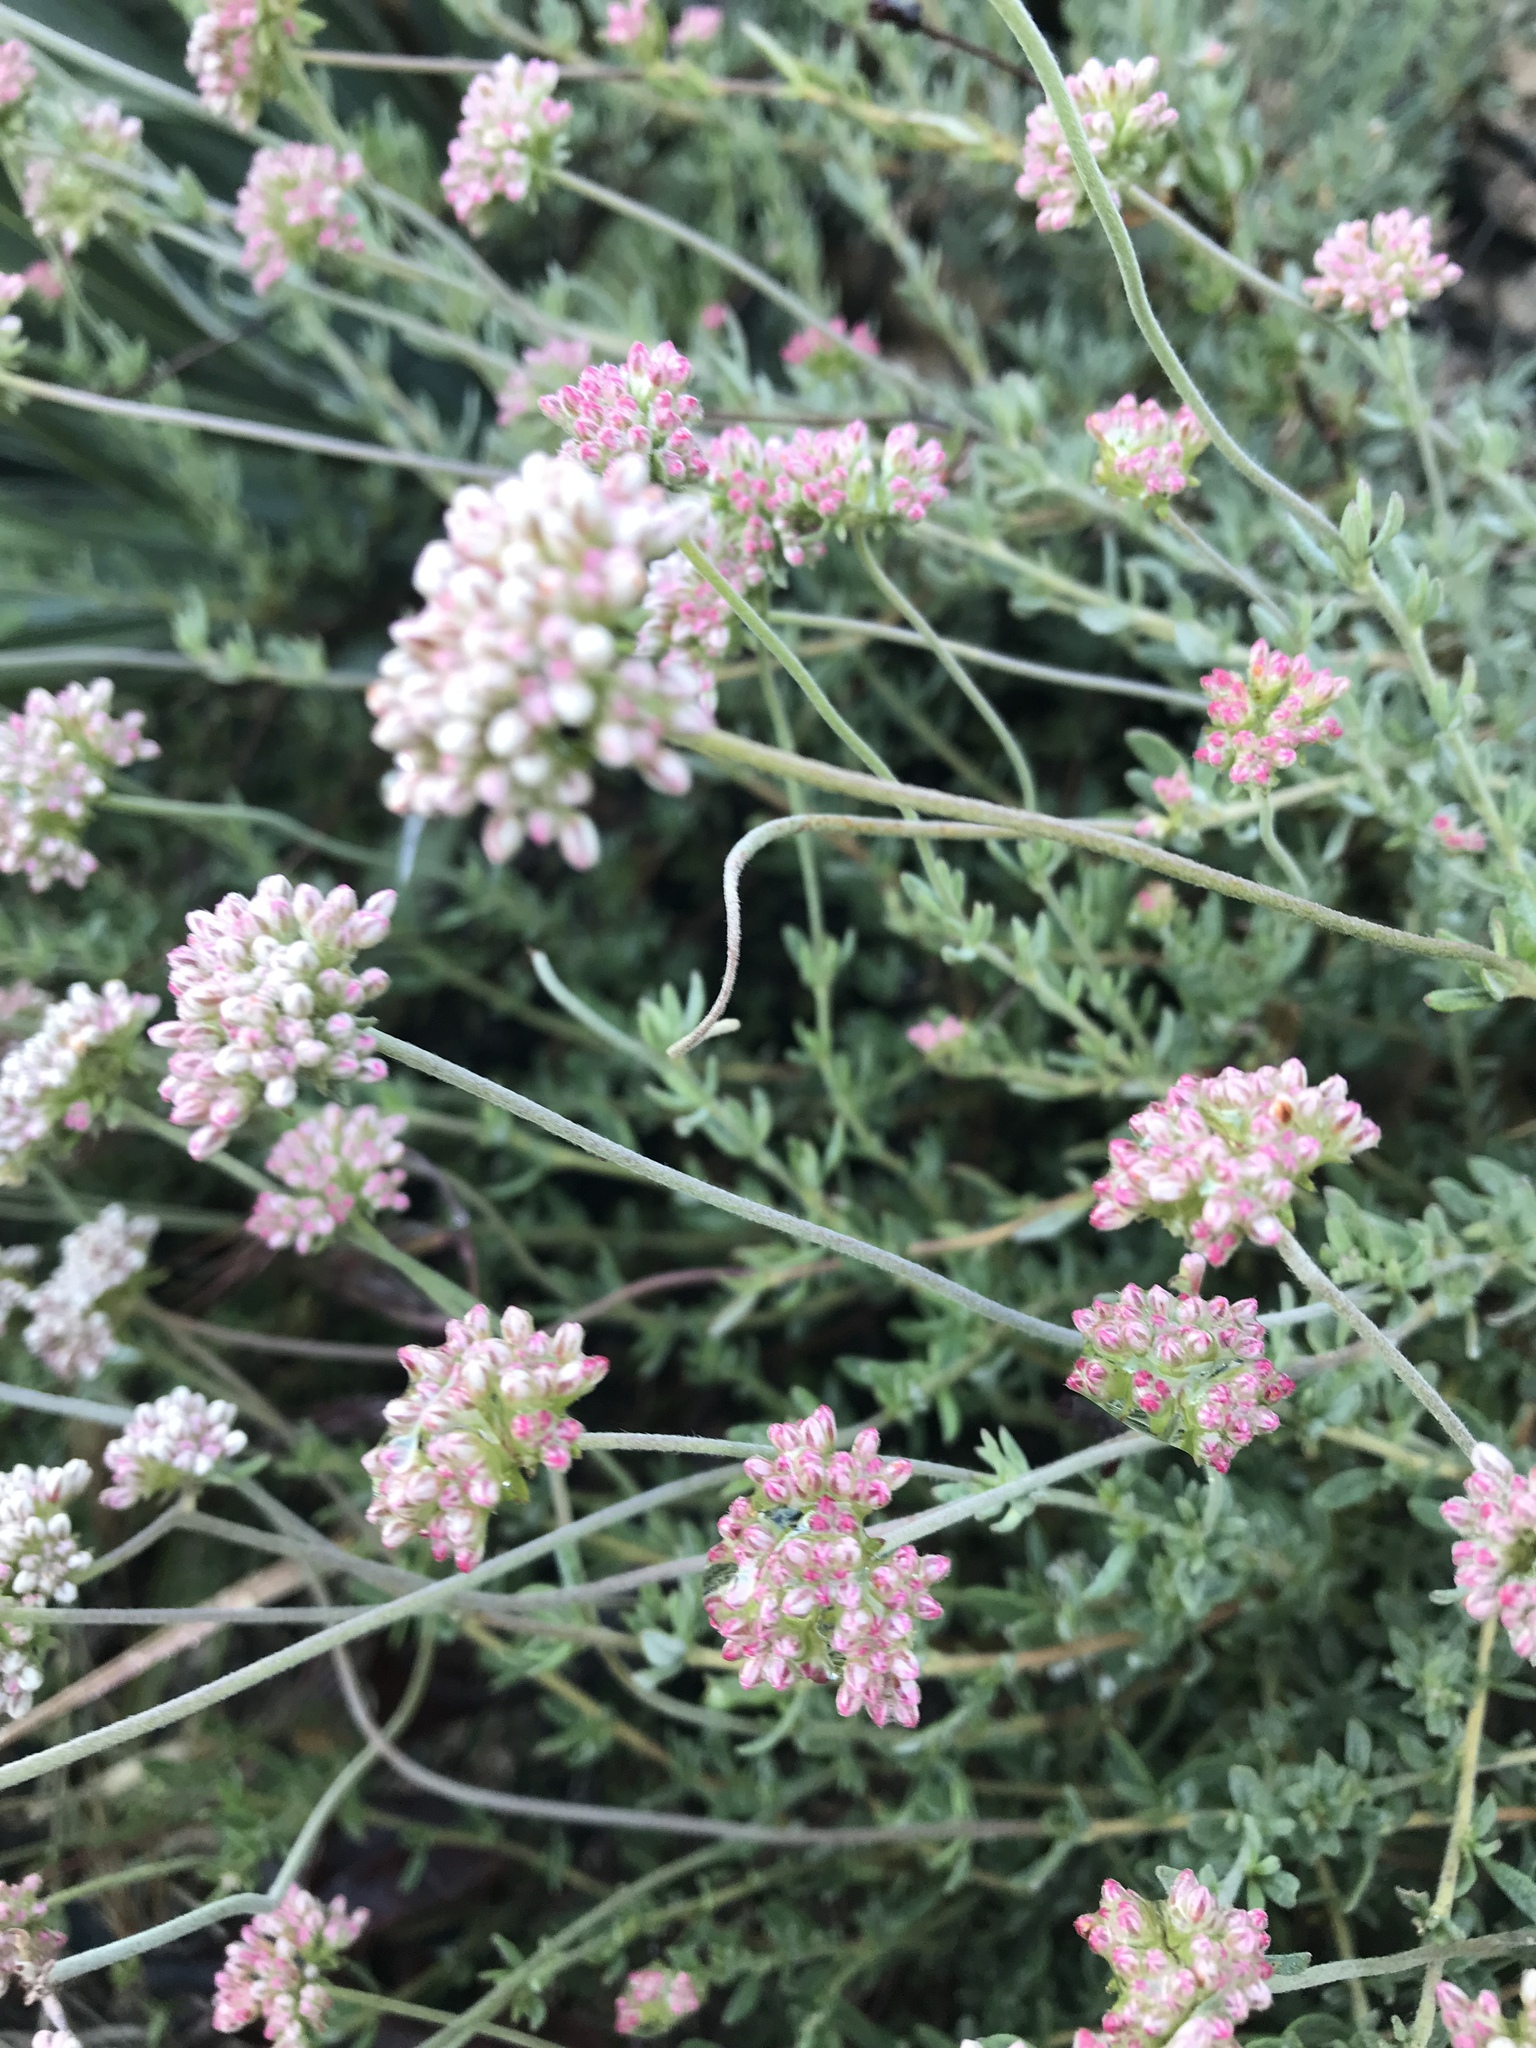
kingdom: Plantae
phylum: Tracheophyta
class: Magnoliopsida
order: Caryophyllales
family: Polygonaceae
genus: Eriogonum
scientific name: Eriogonum fasciculatum
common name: California wild buckwheat
